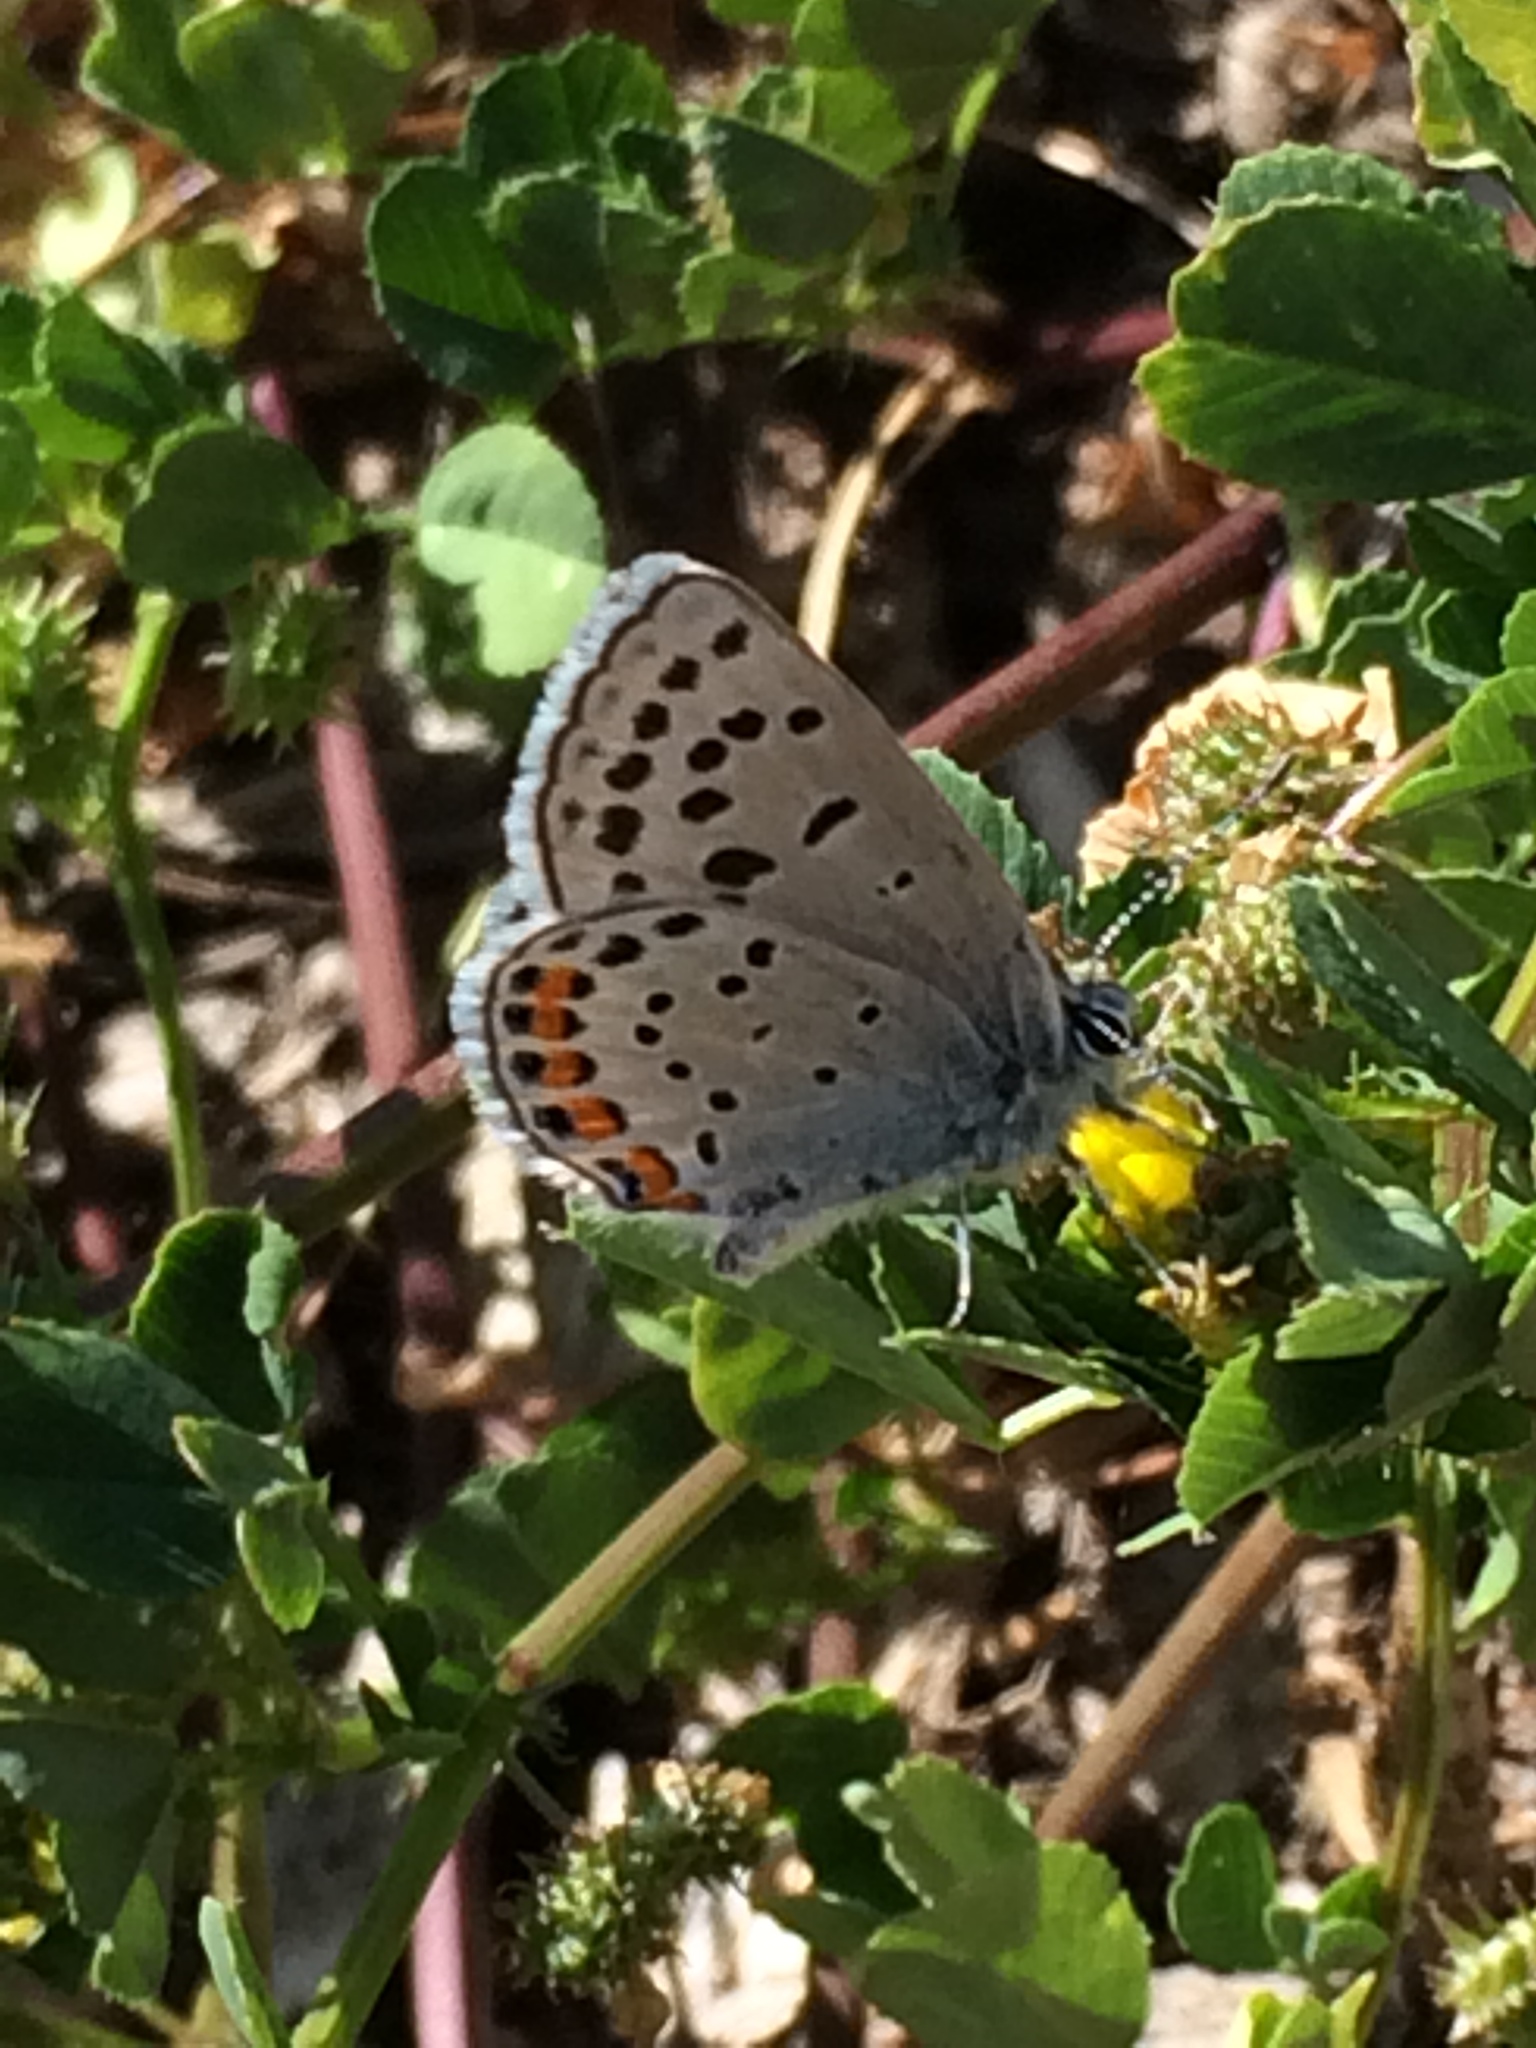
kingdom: Animalia
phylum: Arthropoda
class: Insecta
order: Lepidoptera
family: Lycaenidae
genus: Icaricia
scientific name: Icaricia acmon
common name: Acmon blue
